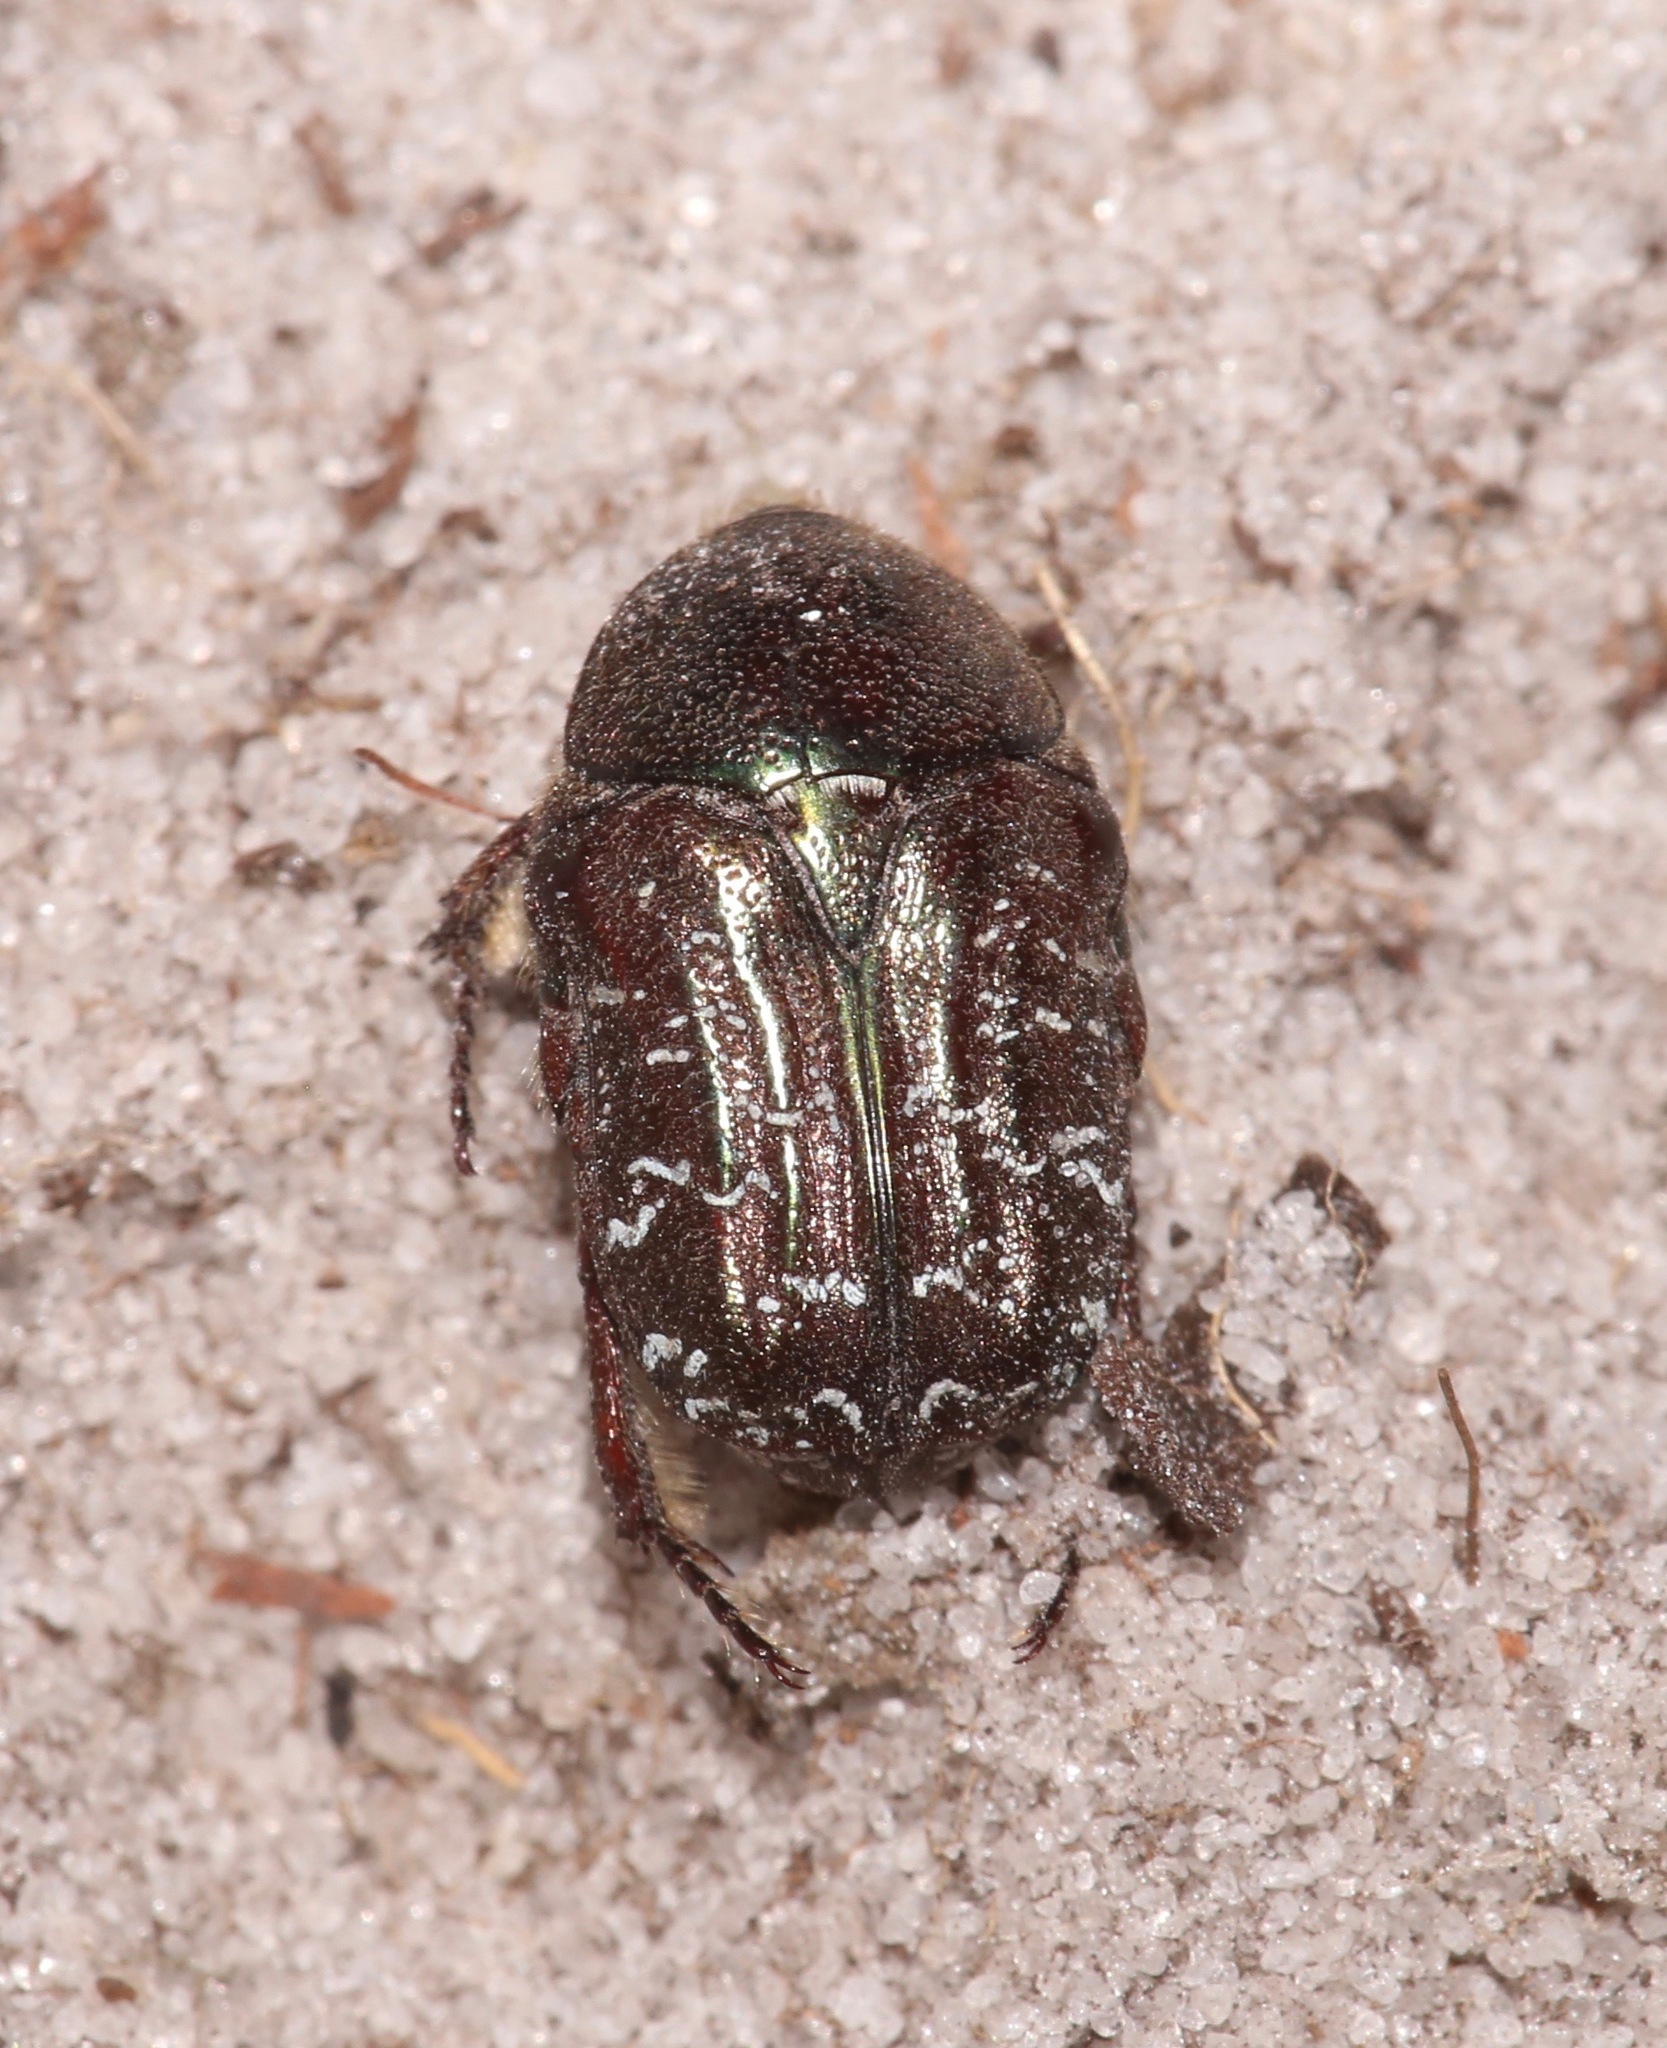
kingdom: Animalia
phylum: Arthropoda
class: Insecta
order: Coleoptera
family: Scarabaeidae
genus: Euphoria
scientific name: Euphoria sepulcralis
